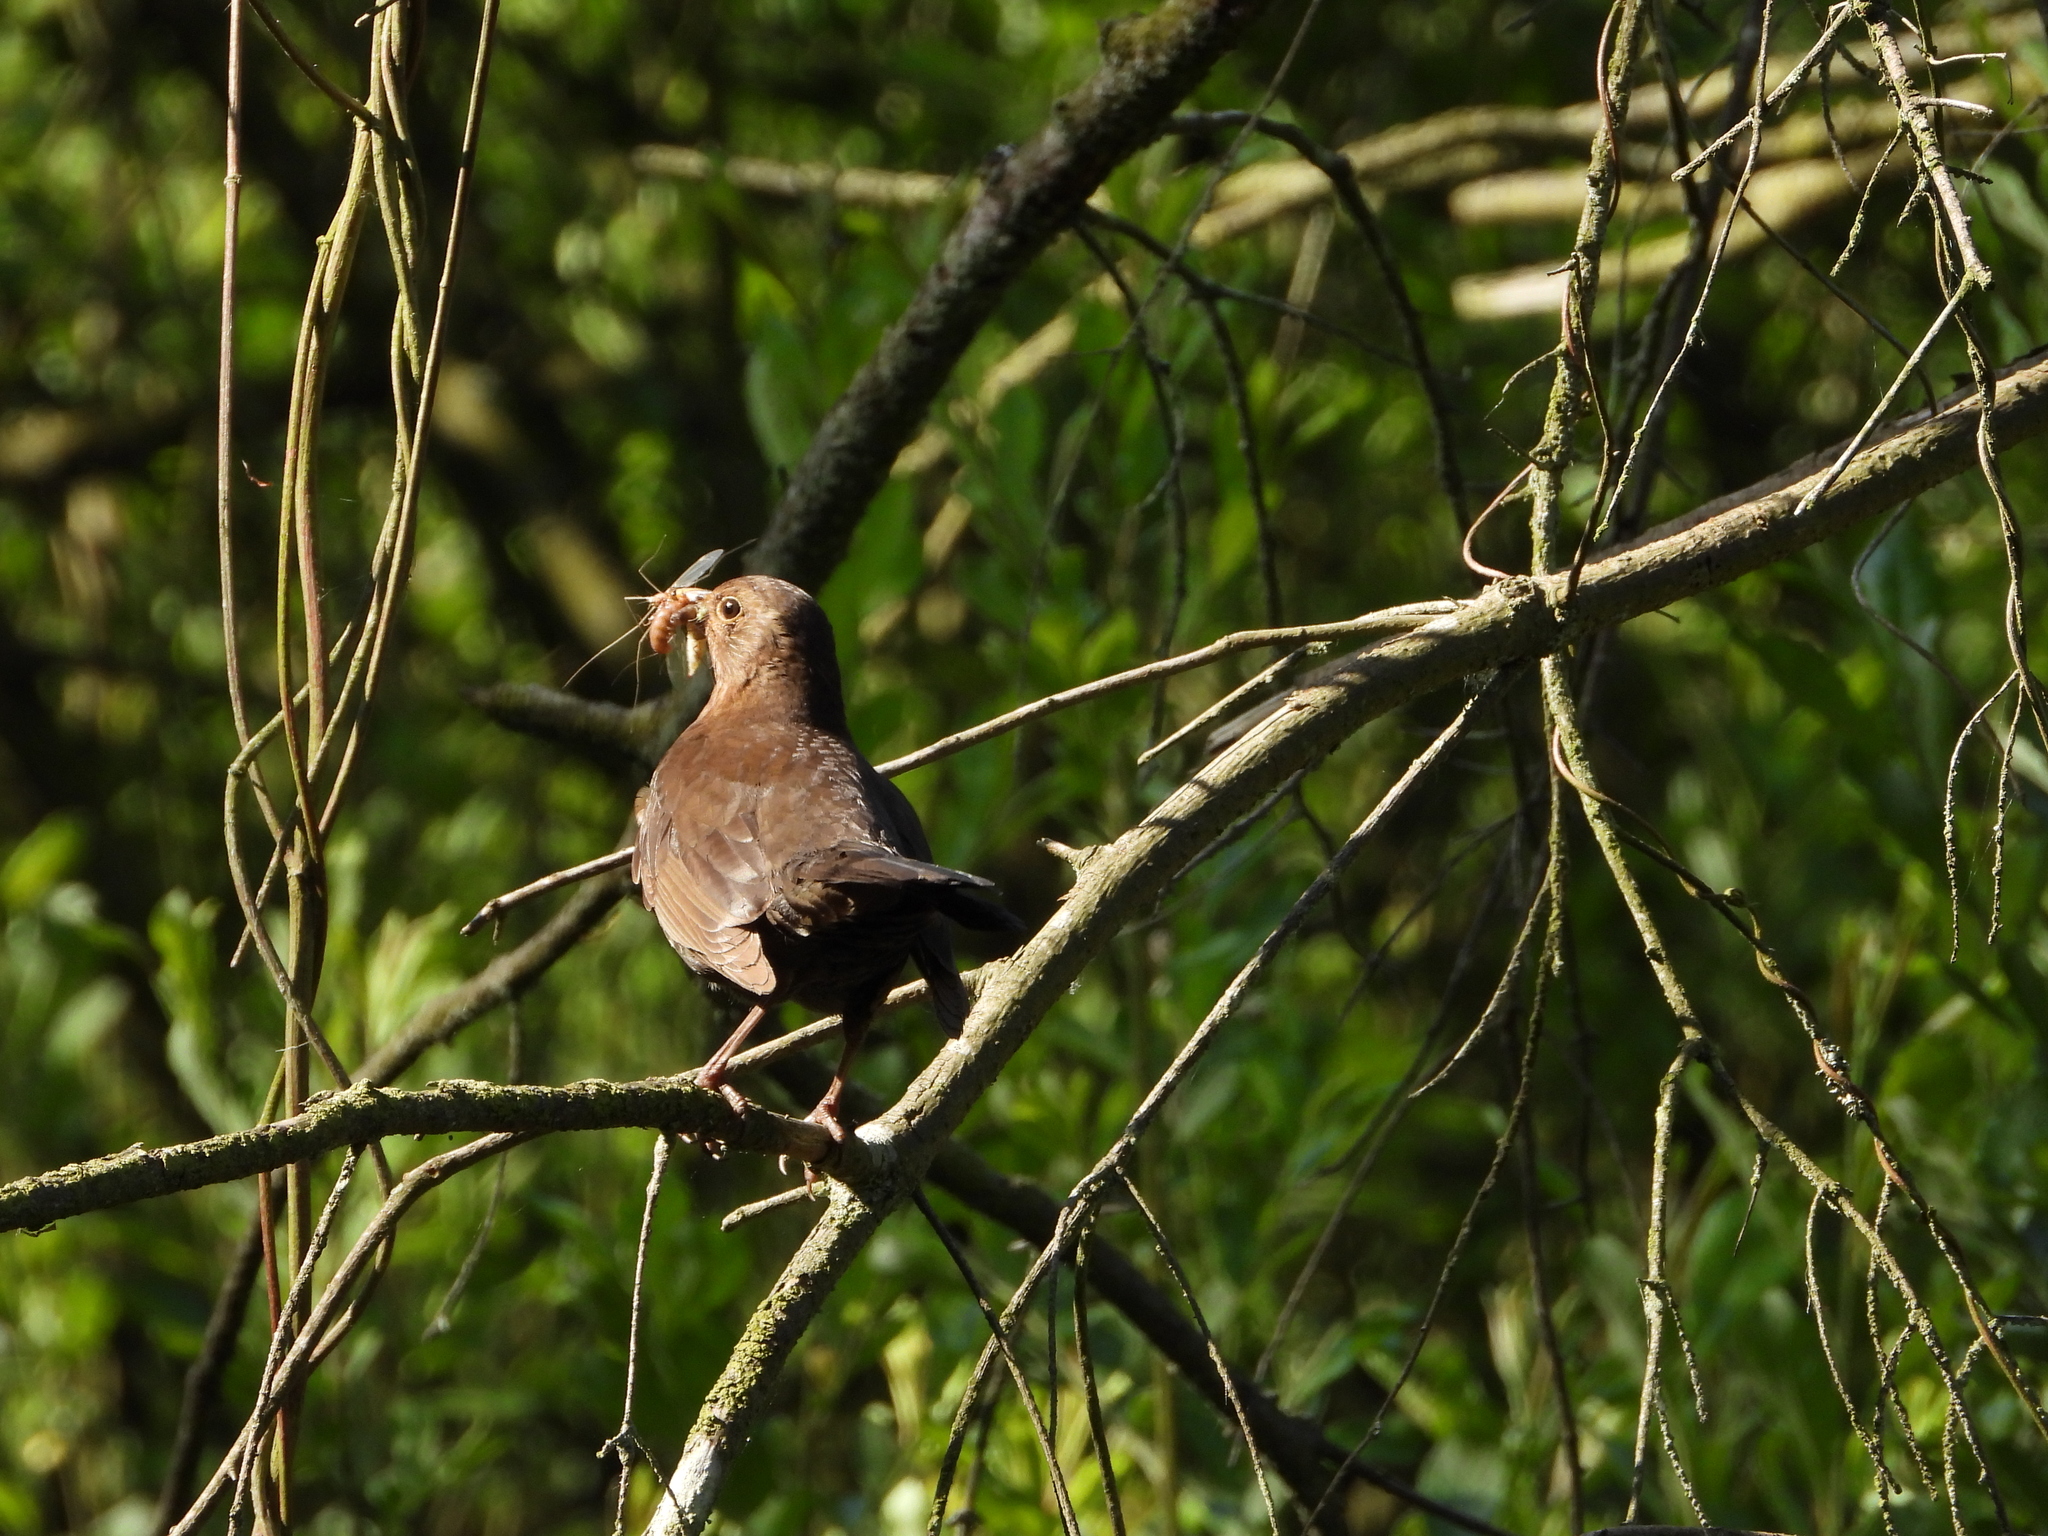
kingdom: Animalia
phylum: Chordata
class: Aves
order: Passeriformes
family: Turdidae
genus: Turdus
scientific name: Turdus merula
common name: Common blackbird
